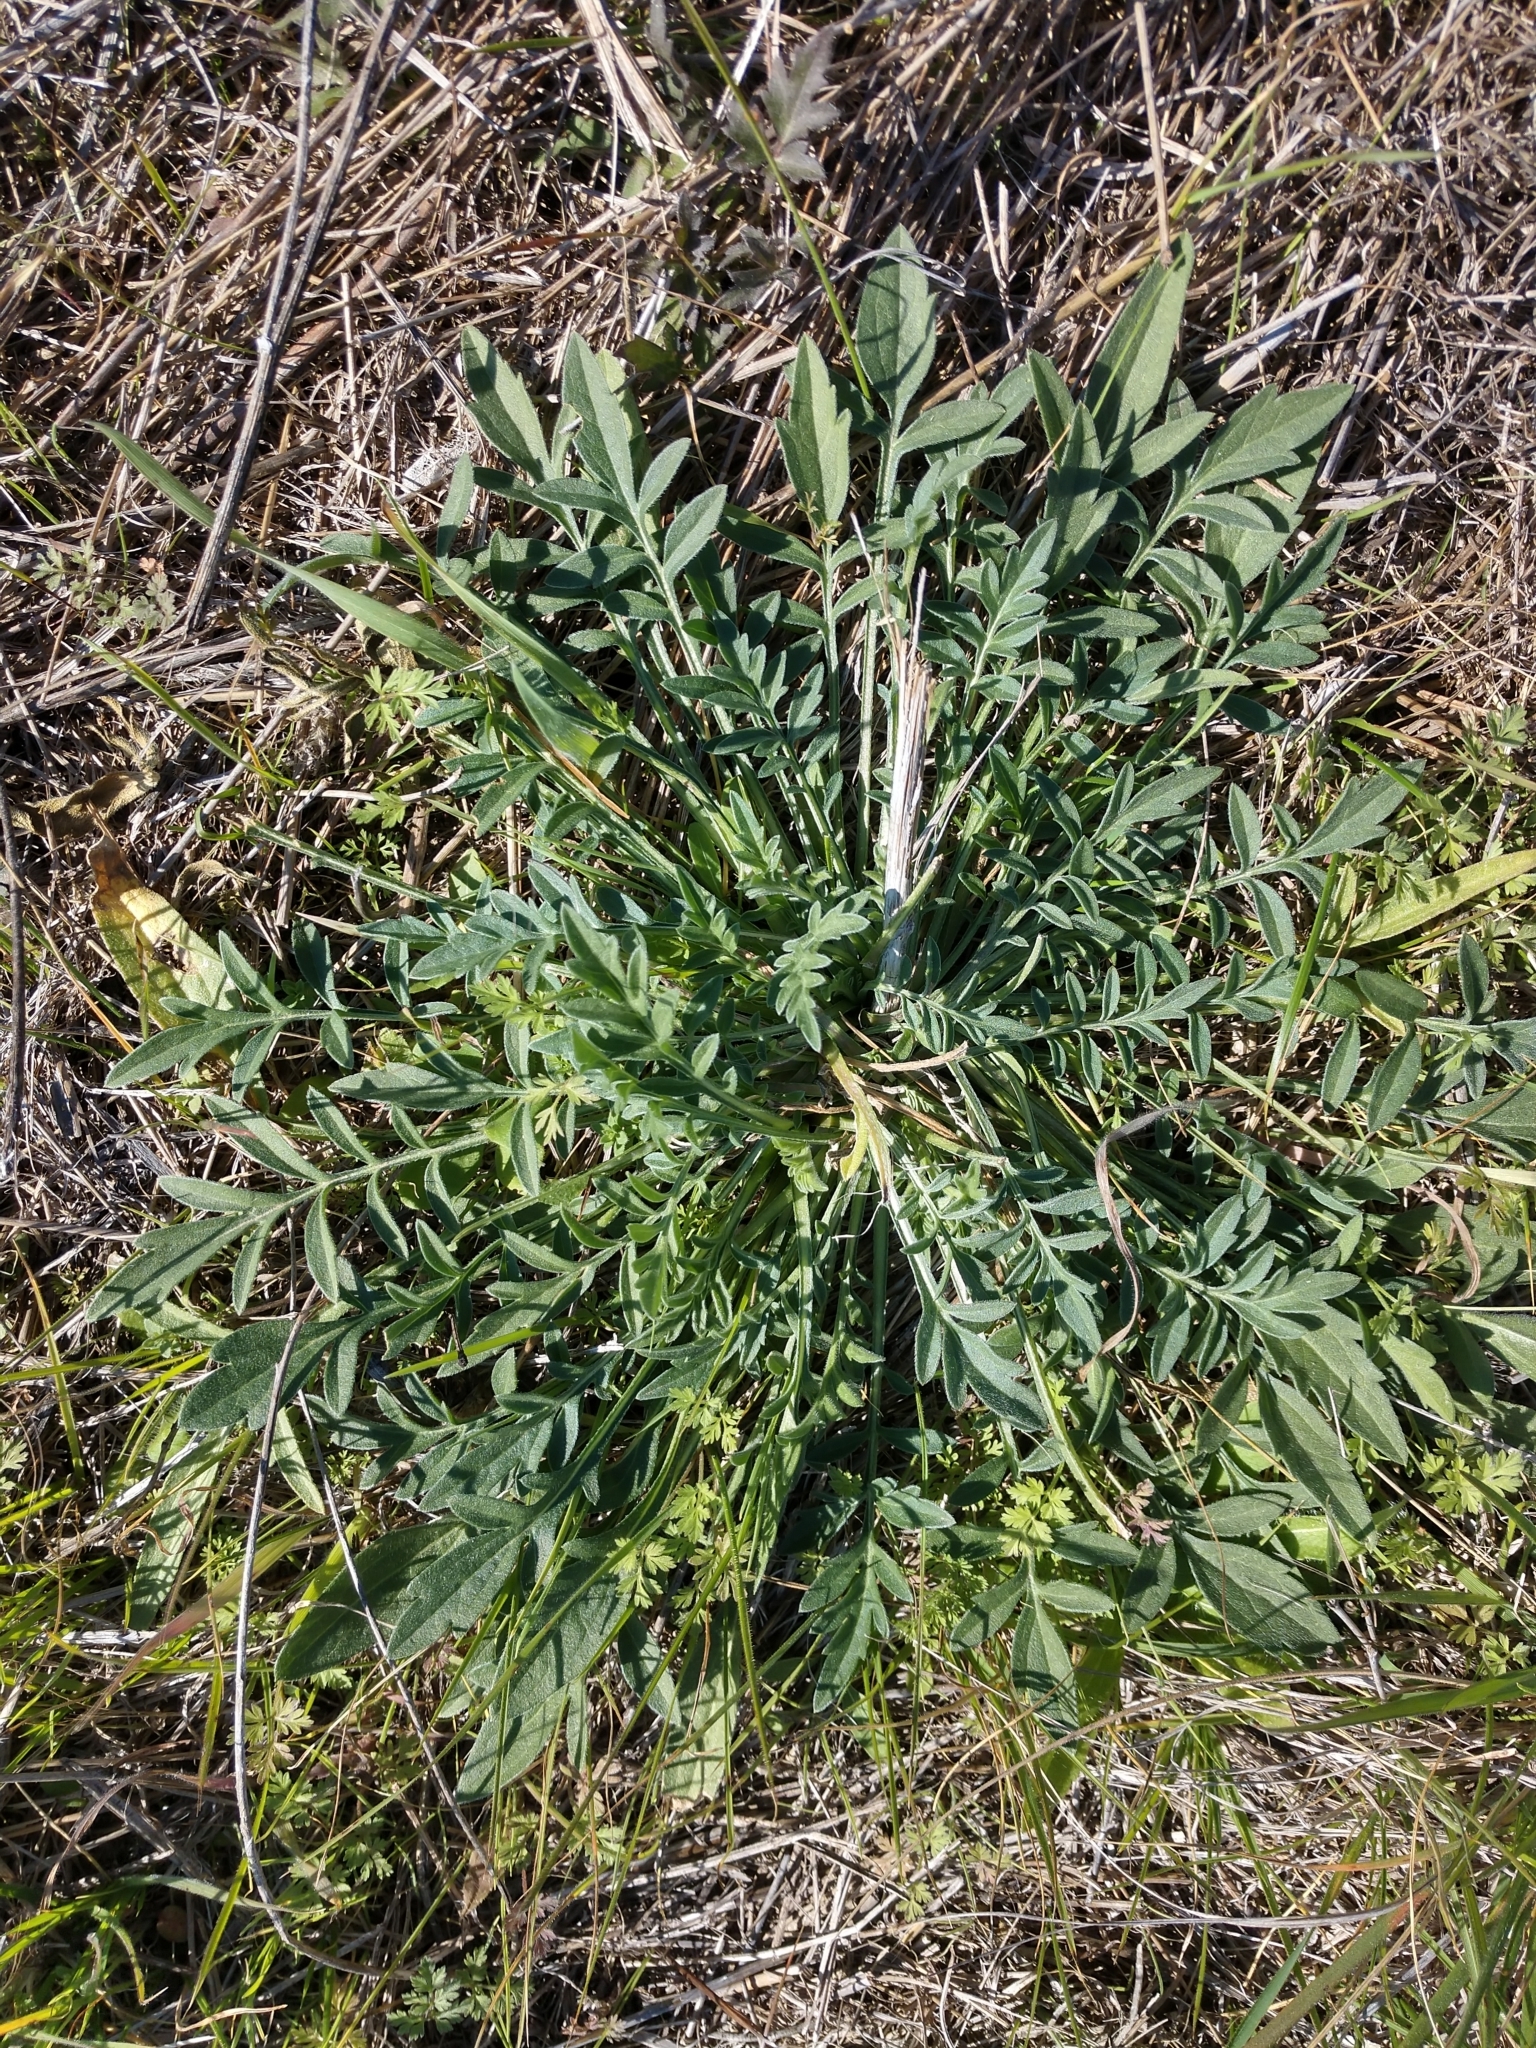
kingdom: Plantae
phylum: Tracheophyta
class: Magnoliopsida
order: Asterales
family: Asteraceae
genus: Ratibida
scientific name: Ratibida columnifera
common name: Prairie coneflower
